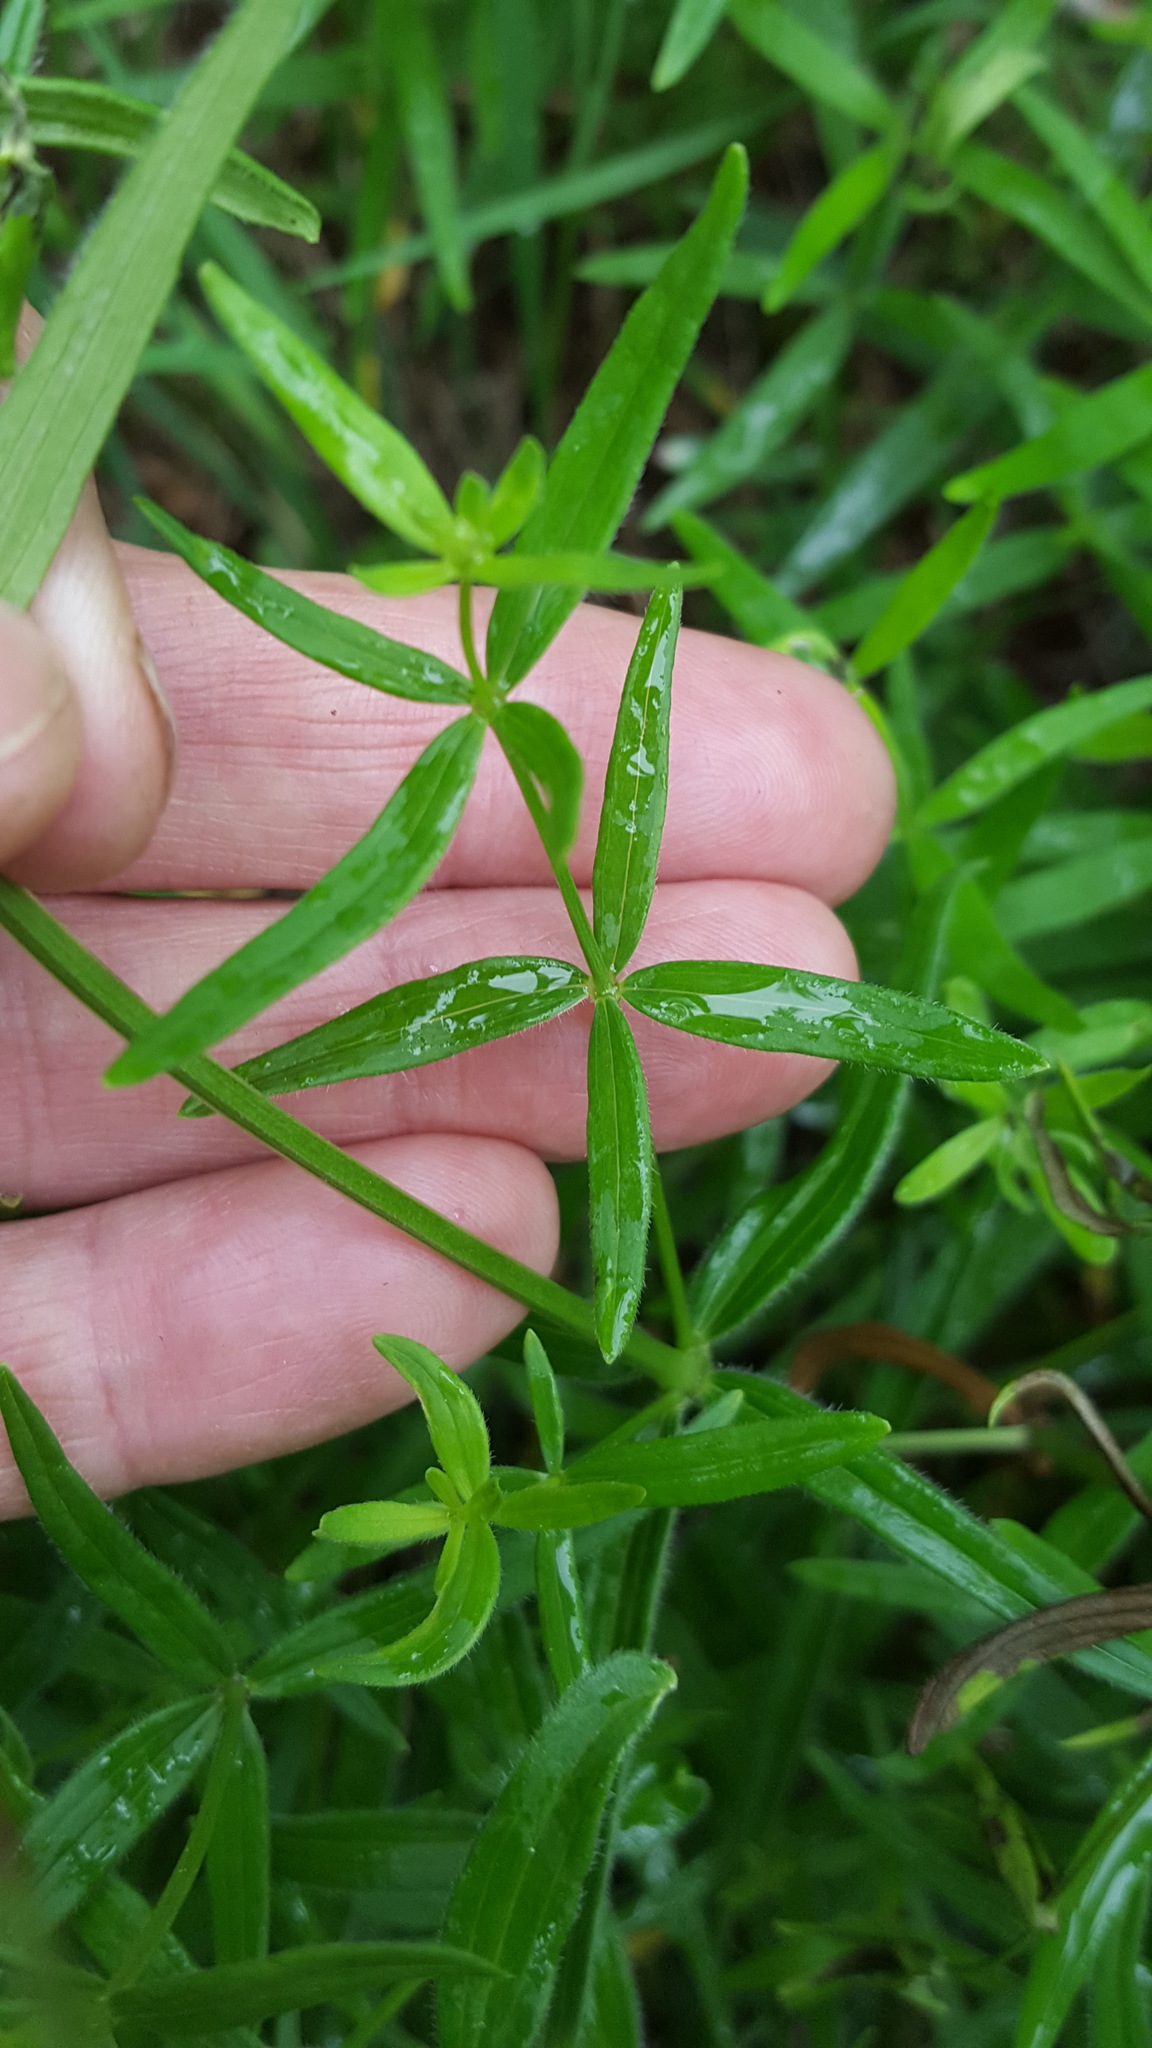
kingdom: Plantae
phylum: Tracheophyta
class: Magnoliopsida
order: Gentianales
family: Rubiaceae
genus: Galium
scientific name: Galium boreale
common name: Northern bedstraw
